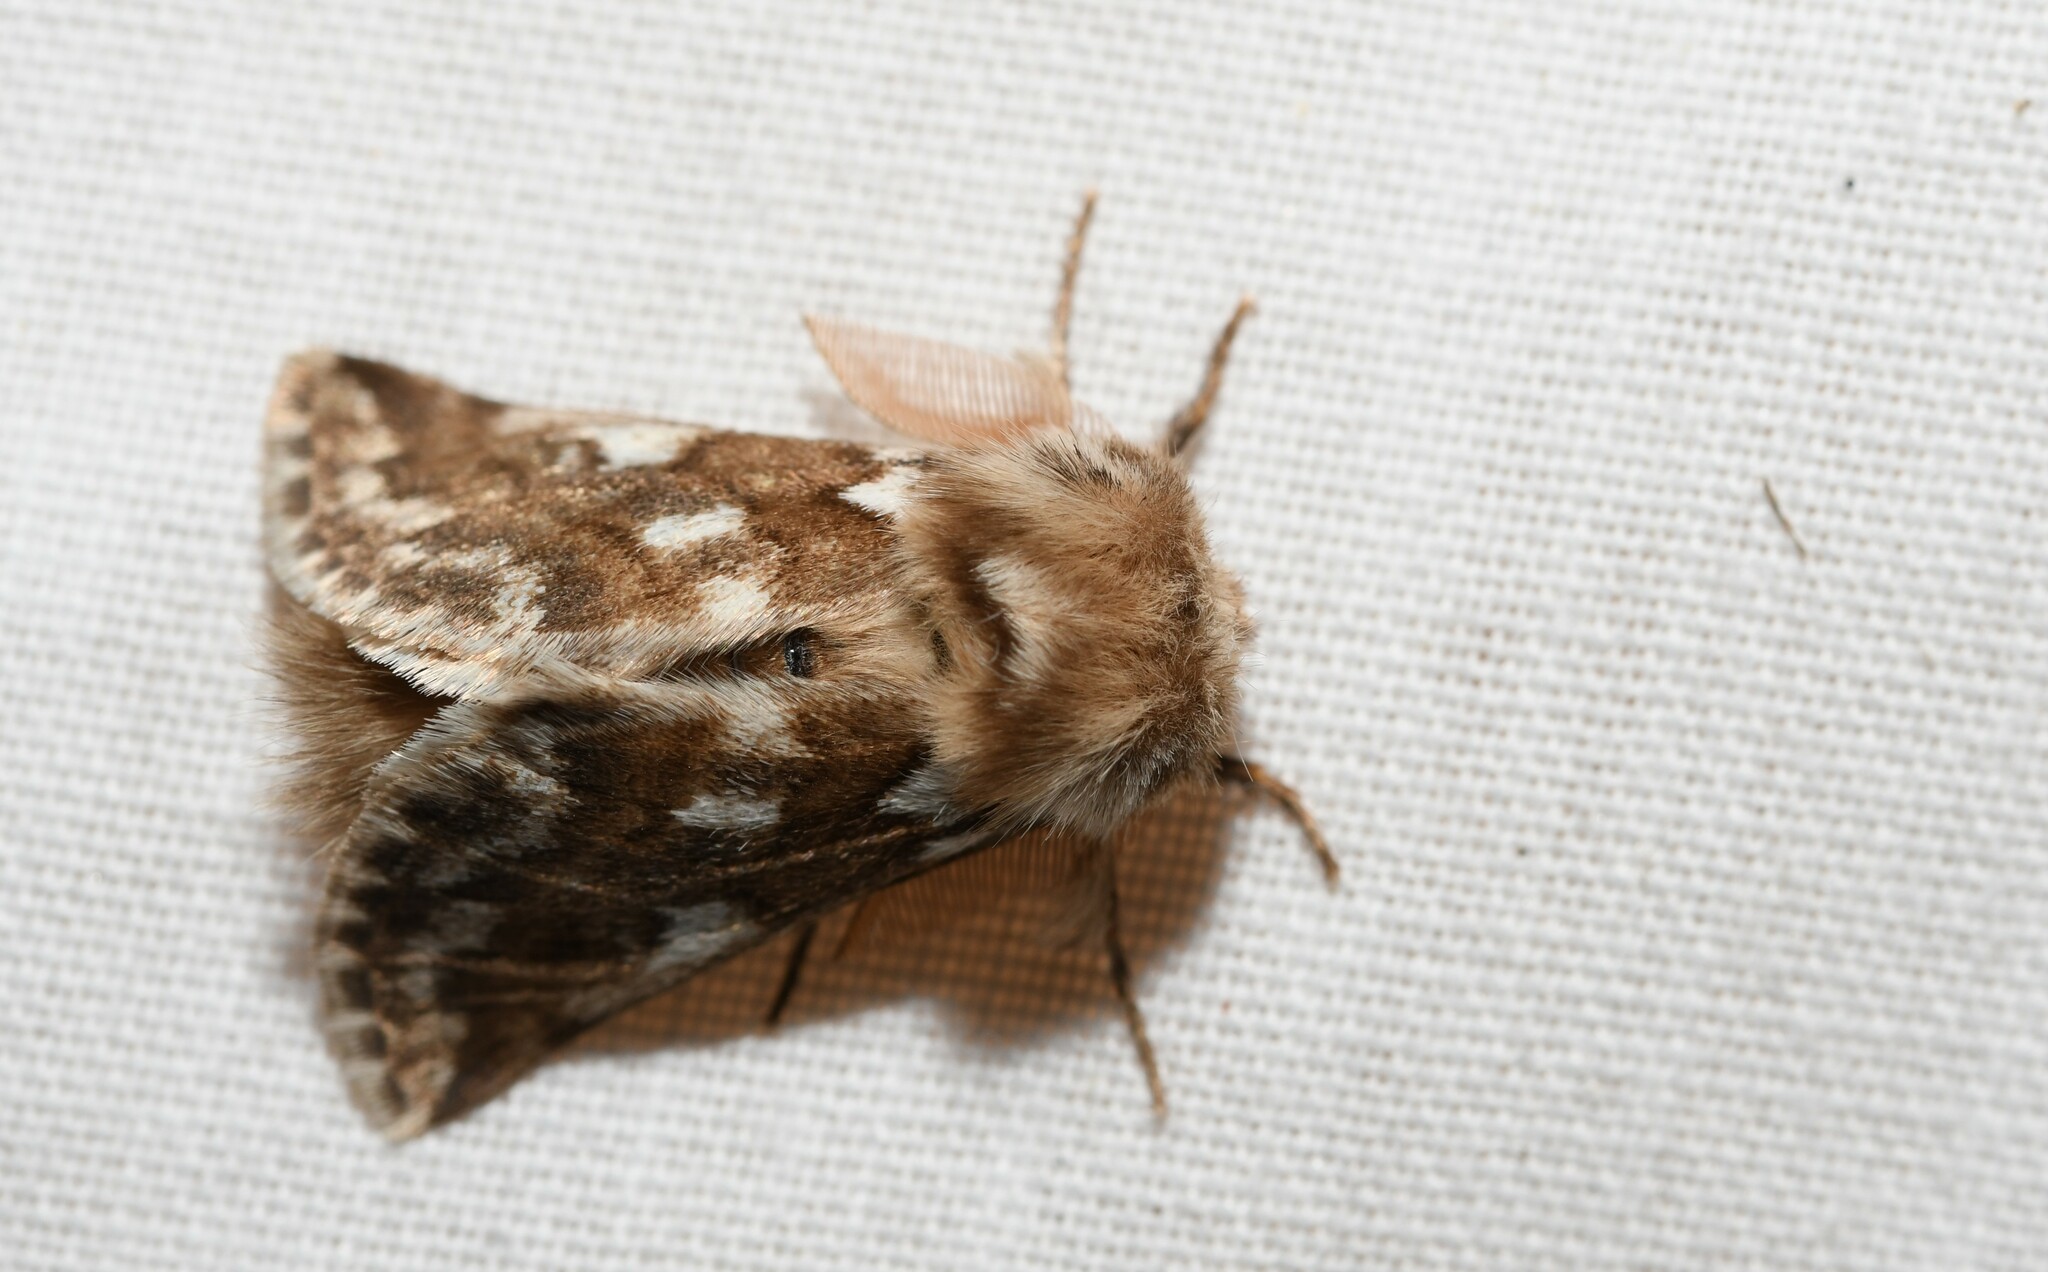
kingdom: Animalia
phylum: Arthropoda
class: Insecta
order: Lepidoptera
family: Notodontidae
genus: Thaumetopoea
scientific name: Thaumetopoea herculeana
